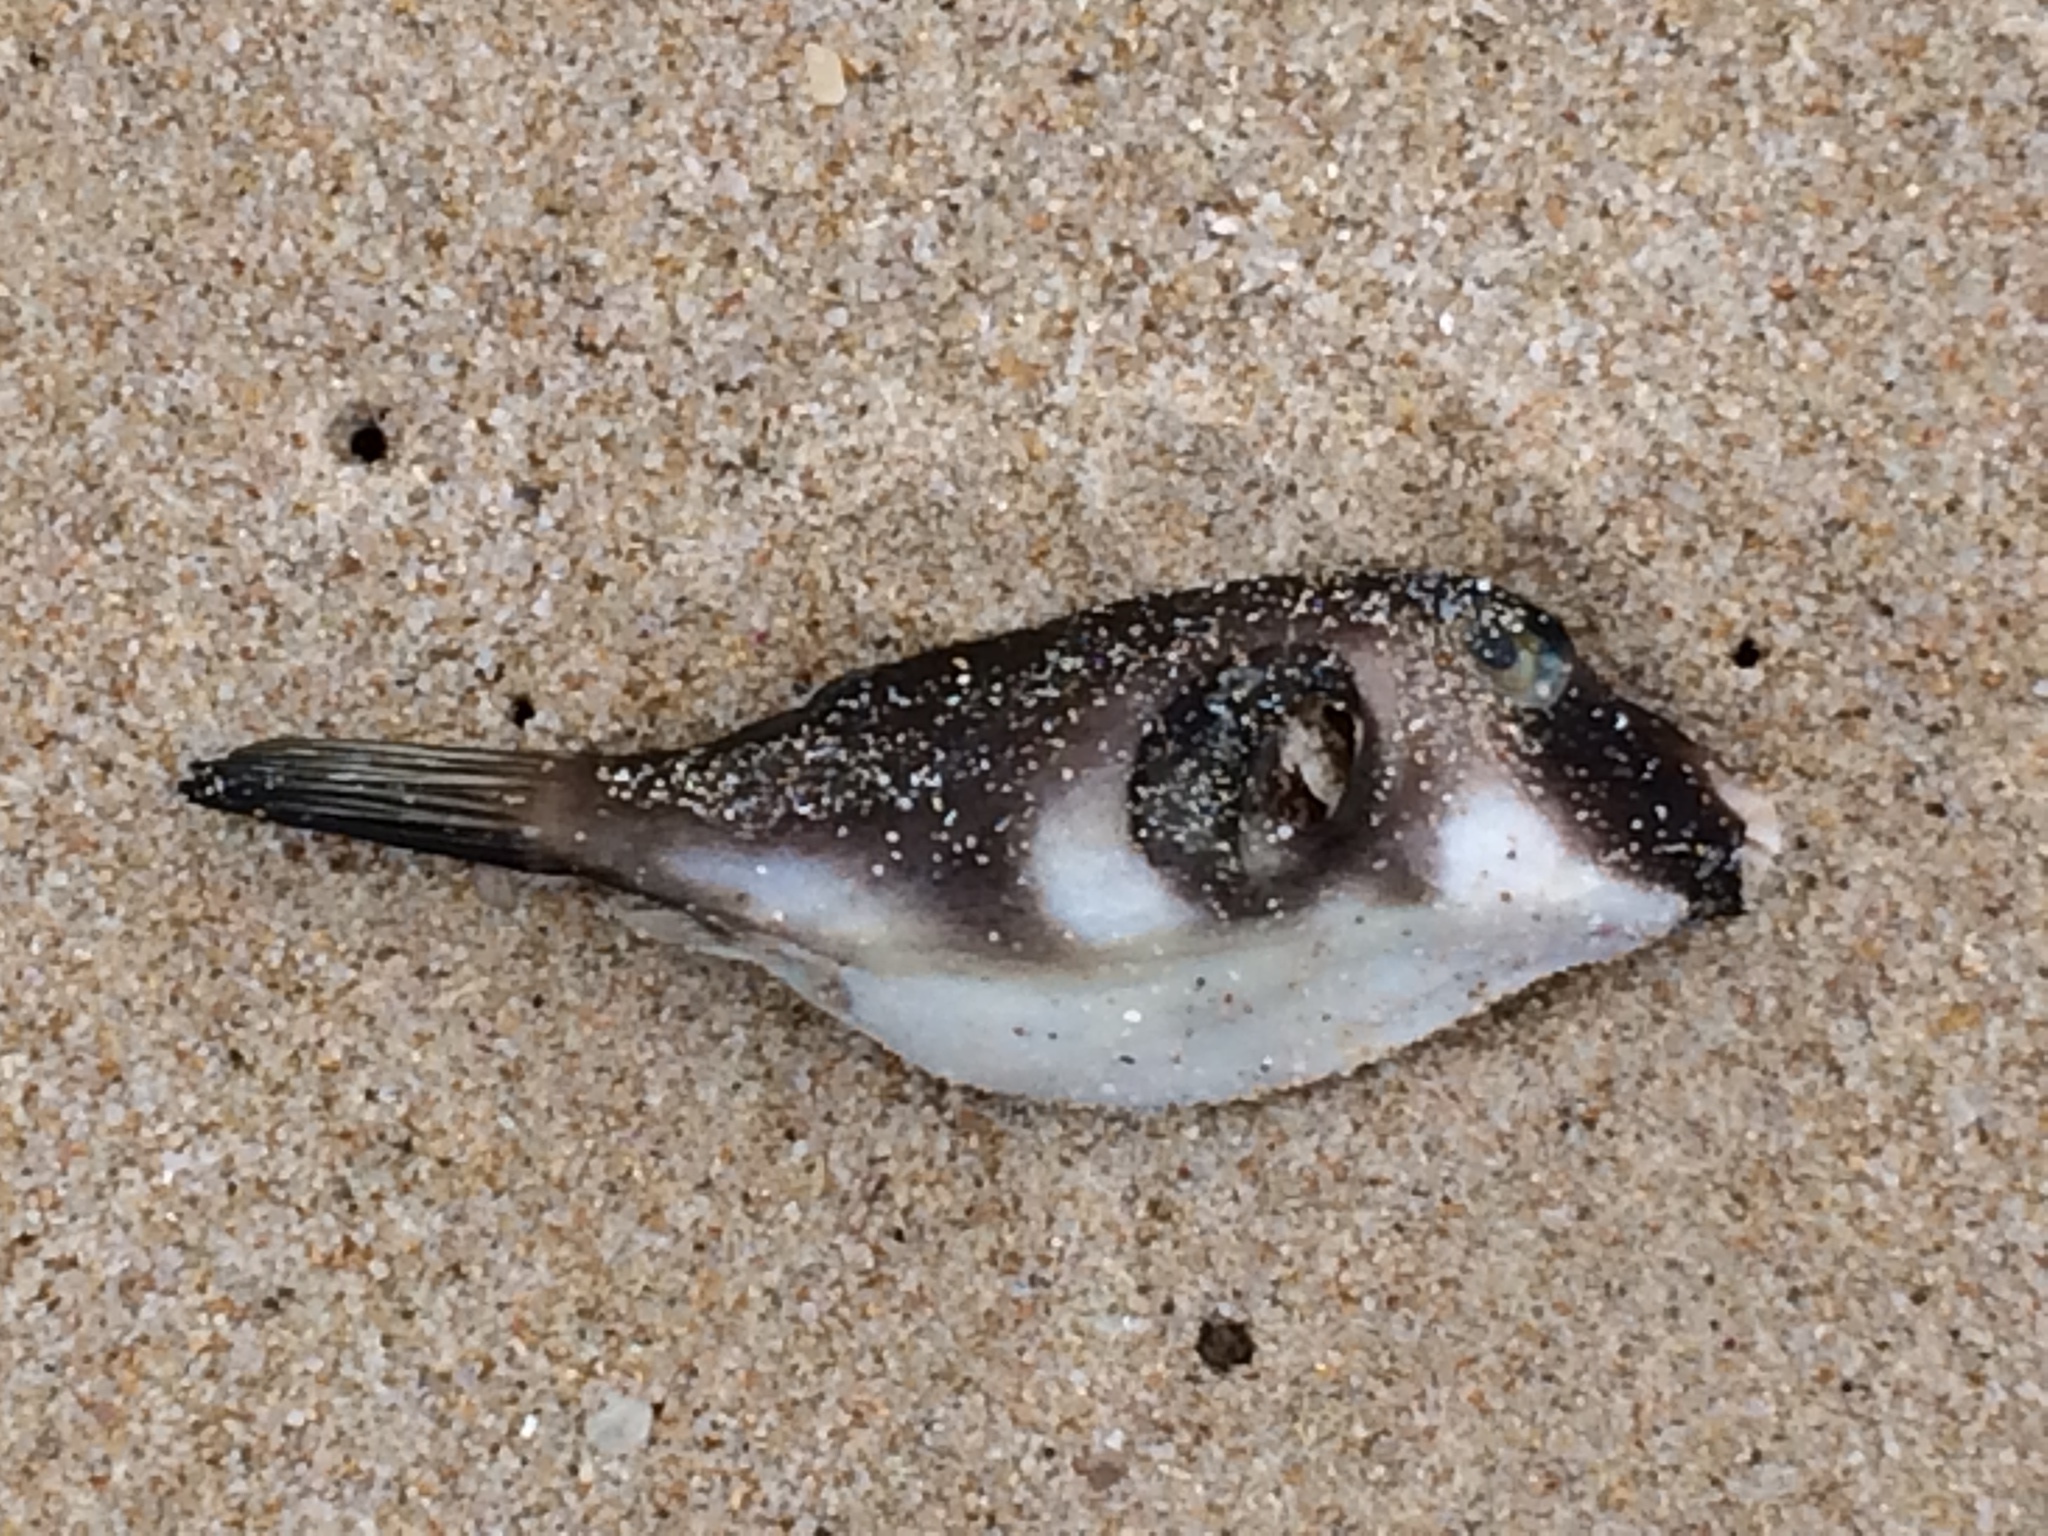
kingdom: Animalia
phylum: Chordata
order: Tetraodontiformes
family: Tetraodontidae
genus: Omegophora
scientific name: Omegophora armilla
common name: Ringed pufferfish
